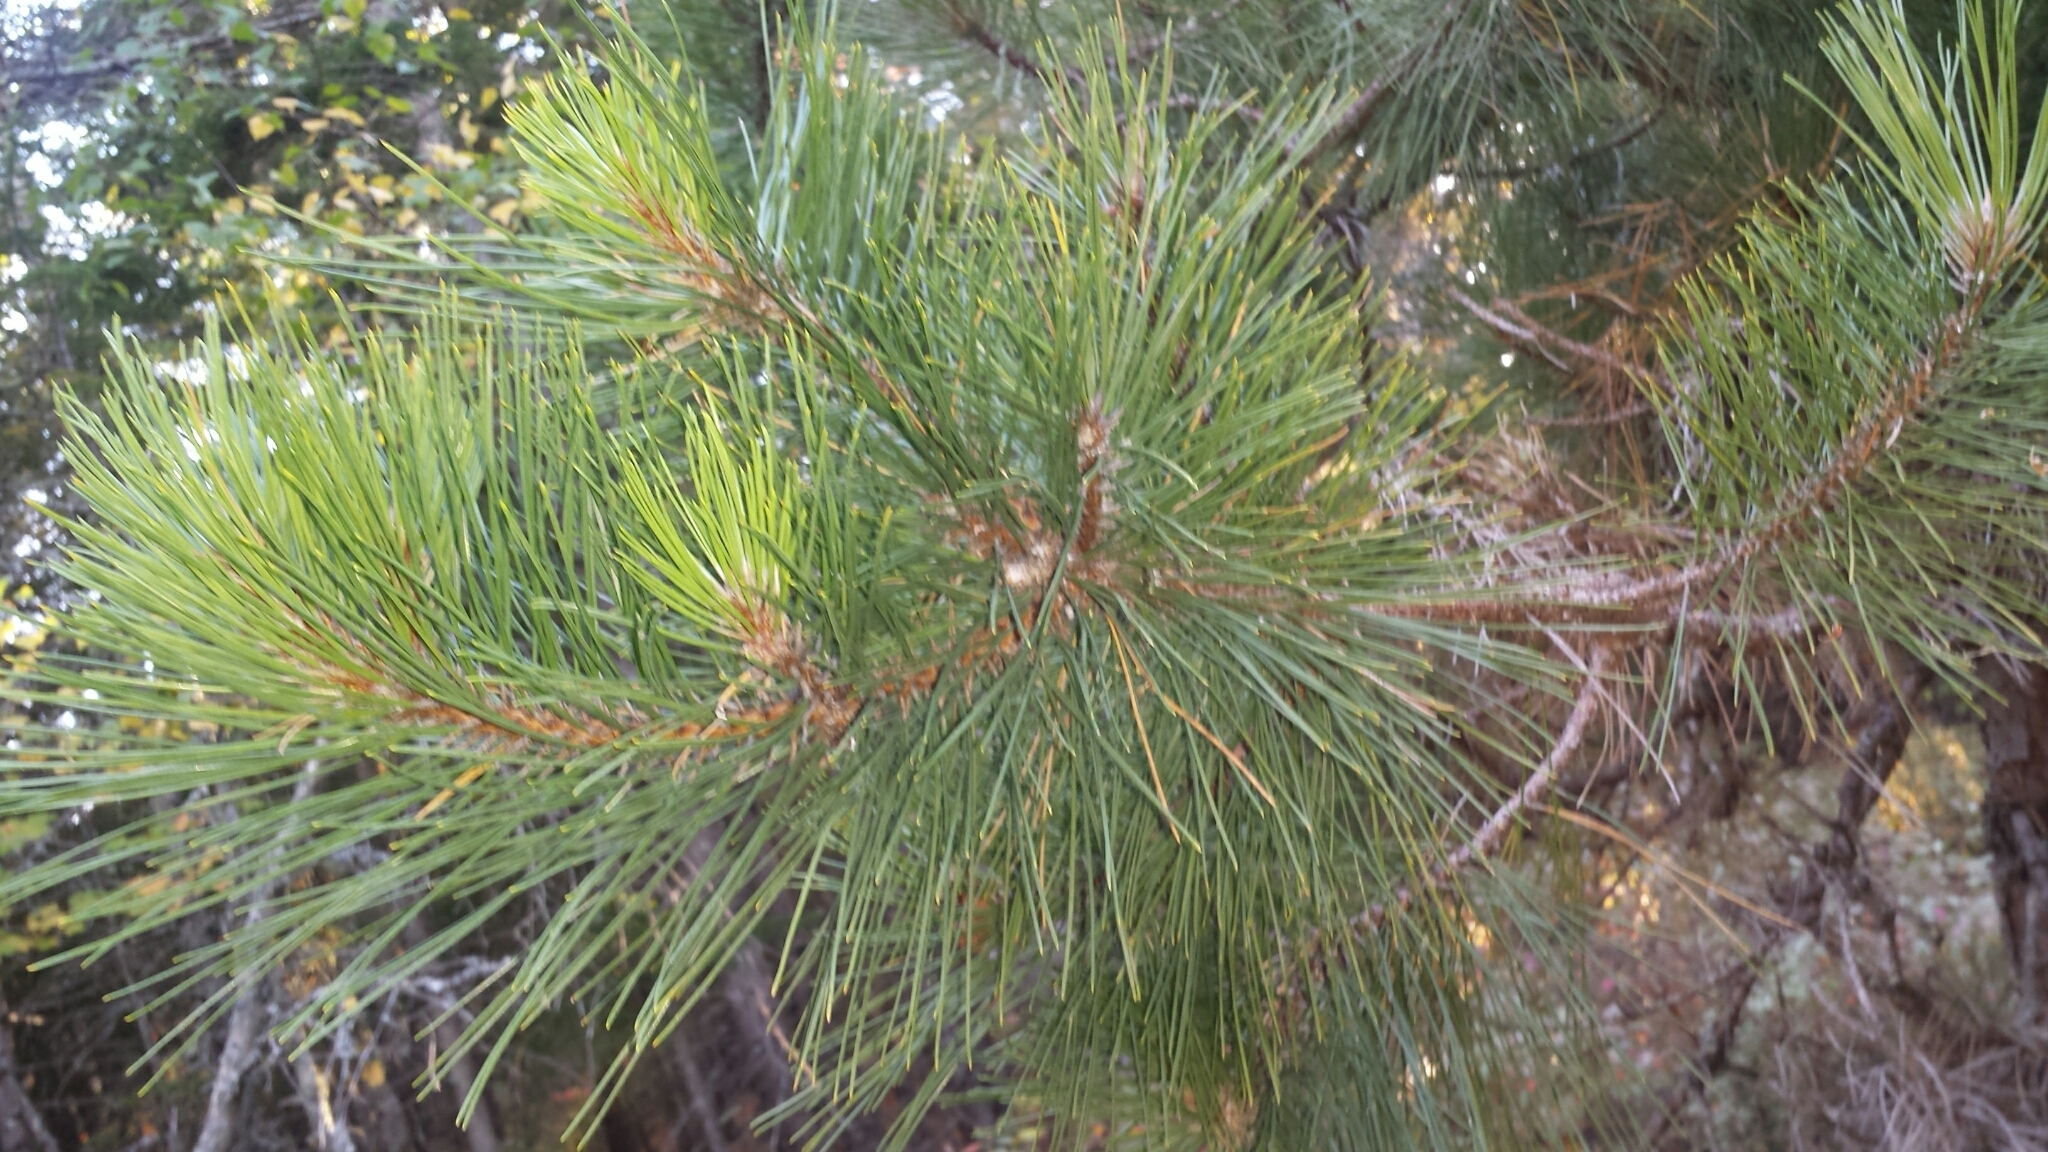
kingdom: Plantae
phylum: Tracheophyta
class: Pinopsida
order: Pinales
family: Pinaceae
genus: Pinus
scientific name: Pinus resinosa
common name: Norway pine
